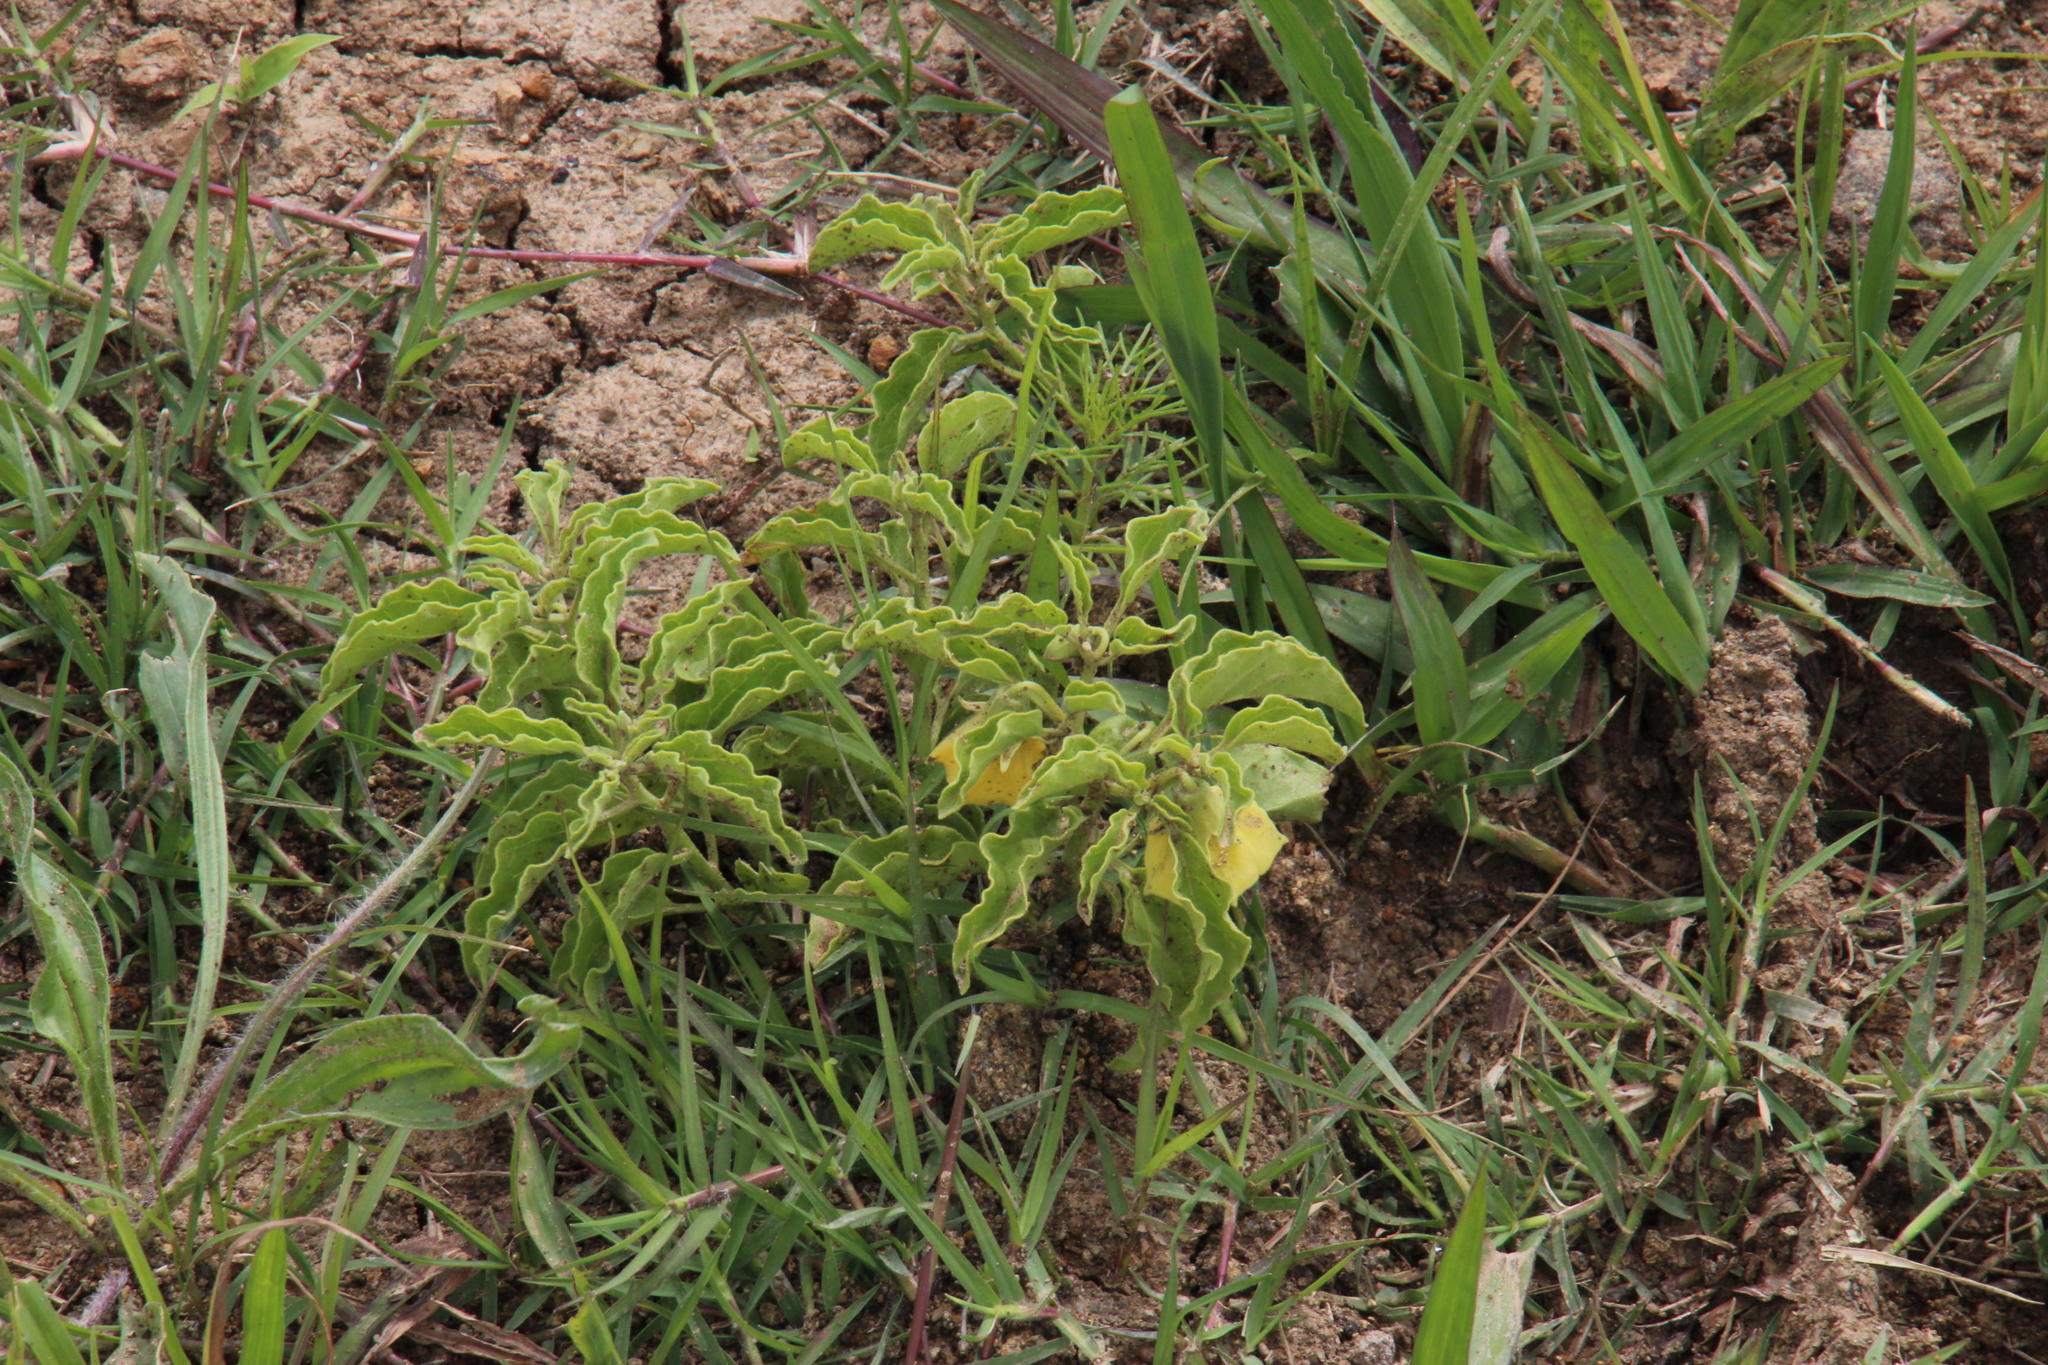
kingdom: Plantae
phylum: Tracheophyta
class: Magnoliopsida
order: Solanales
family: Solanaceae
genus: Physalis
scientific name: Physalis viscosa
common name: Stellate ground-cherry
